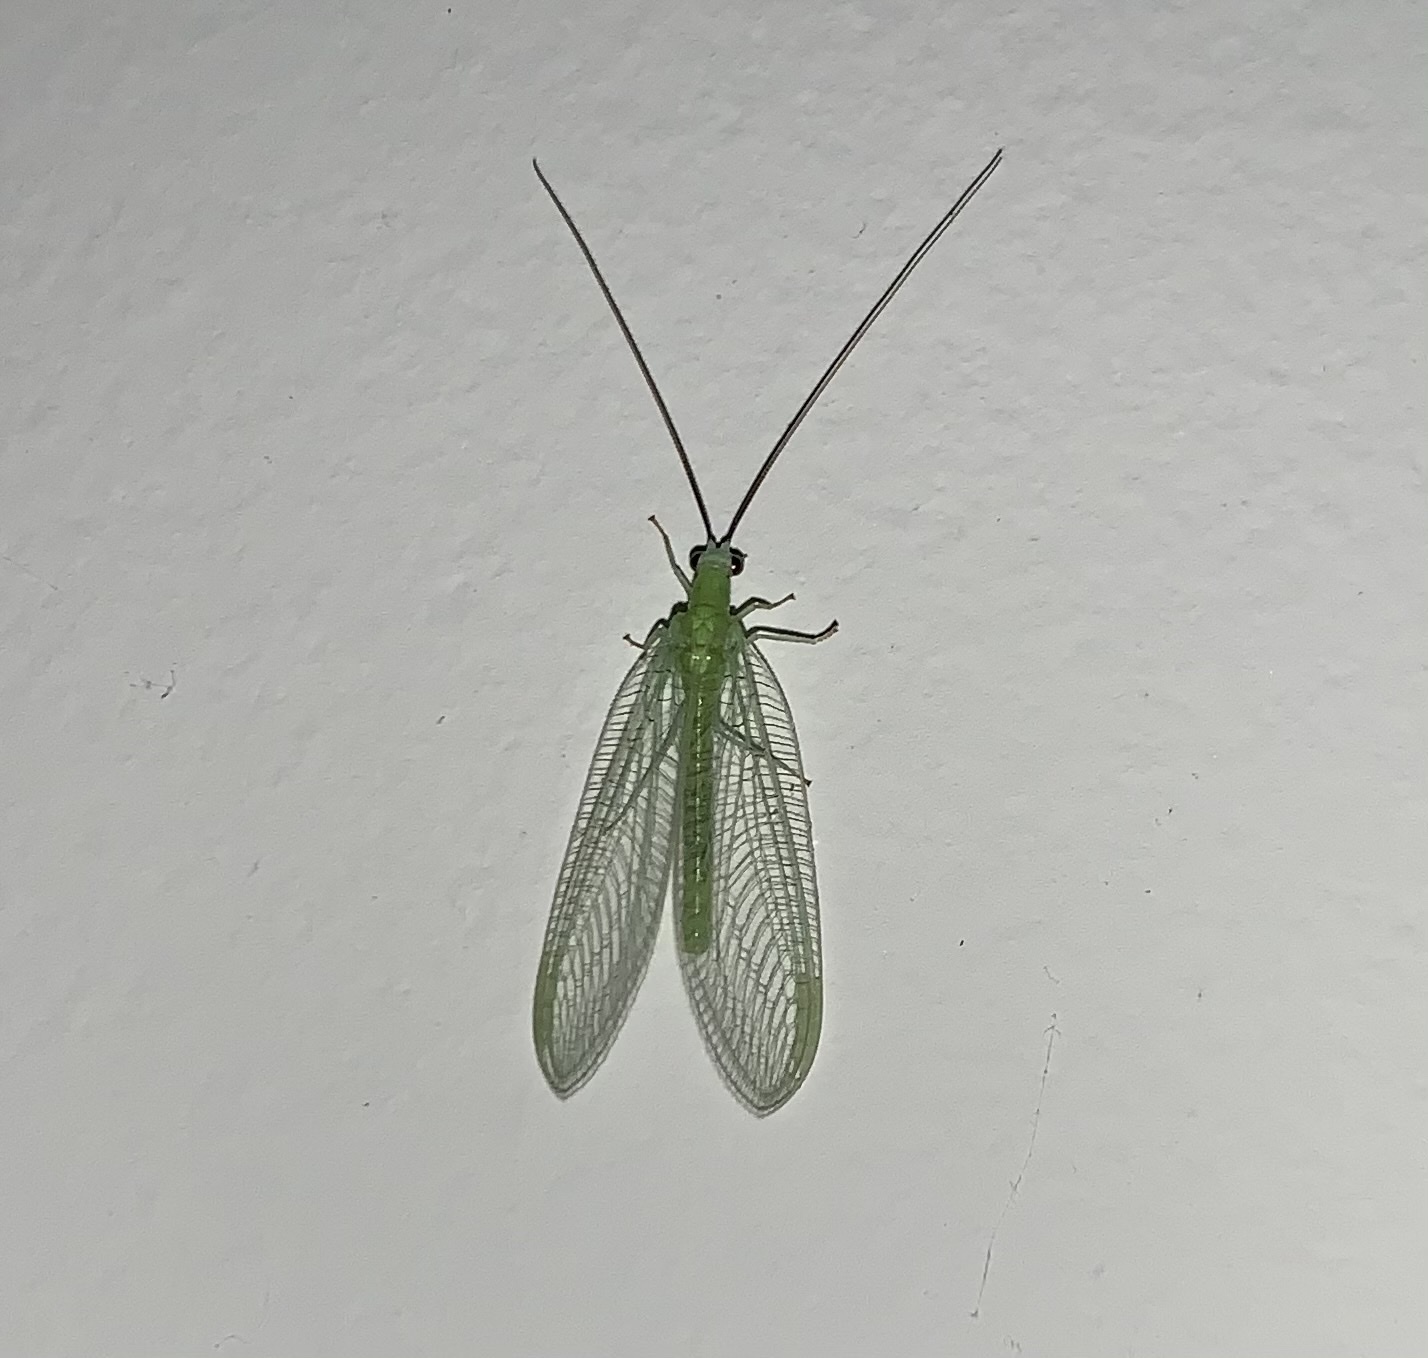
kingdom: Animalia
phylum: Arthropoda
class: Insecta
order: Neuroptera
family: Chrysopidae
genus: Chrysopa
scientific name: Chrysopa nigricornis
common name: Black-horned green lacewing
